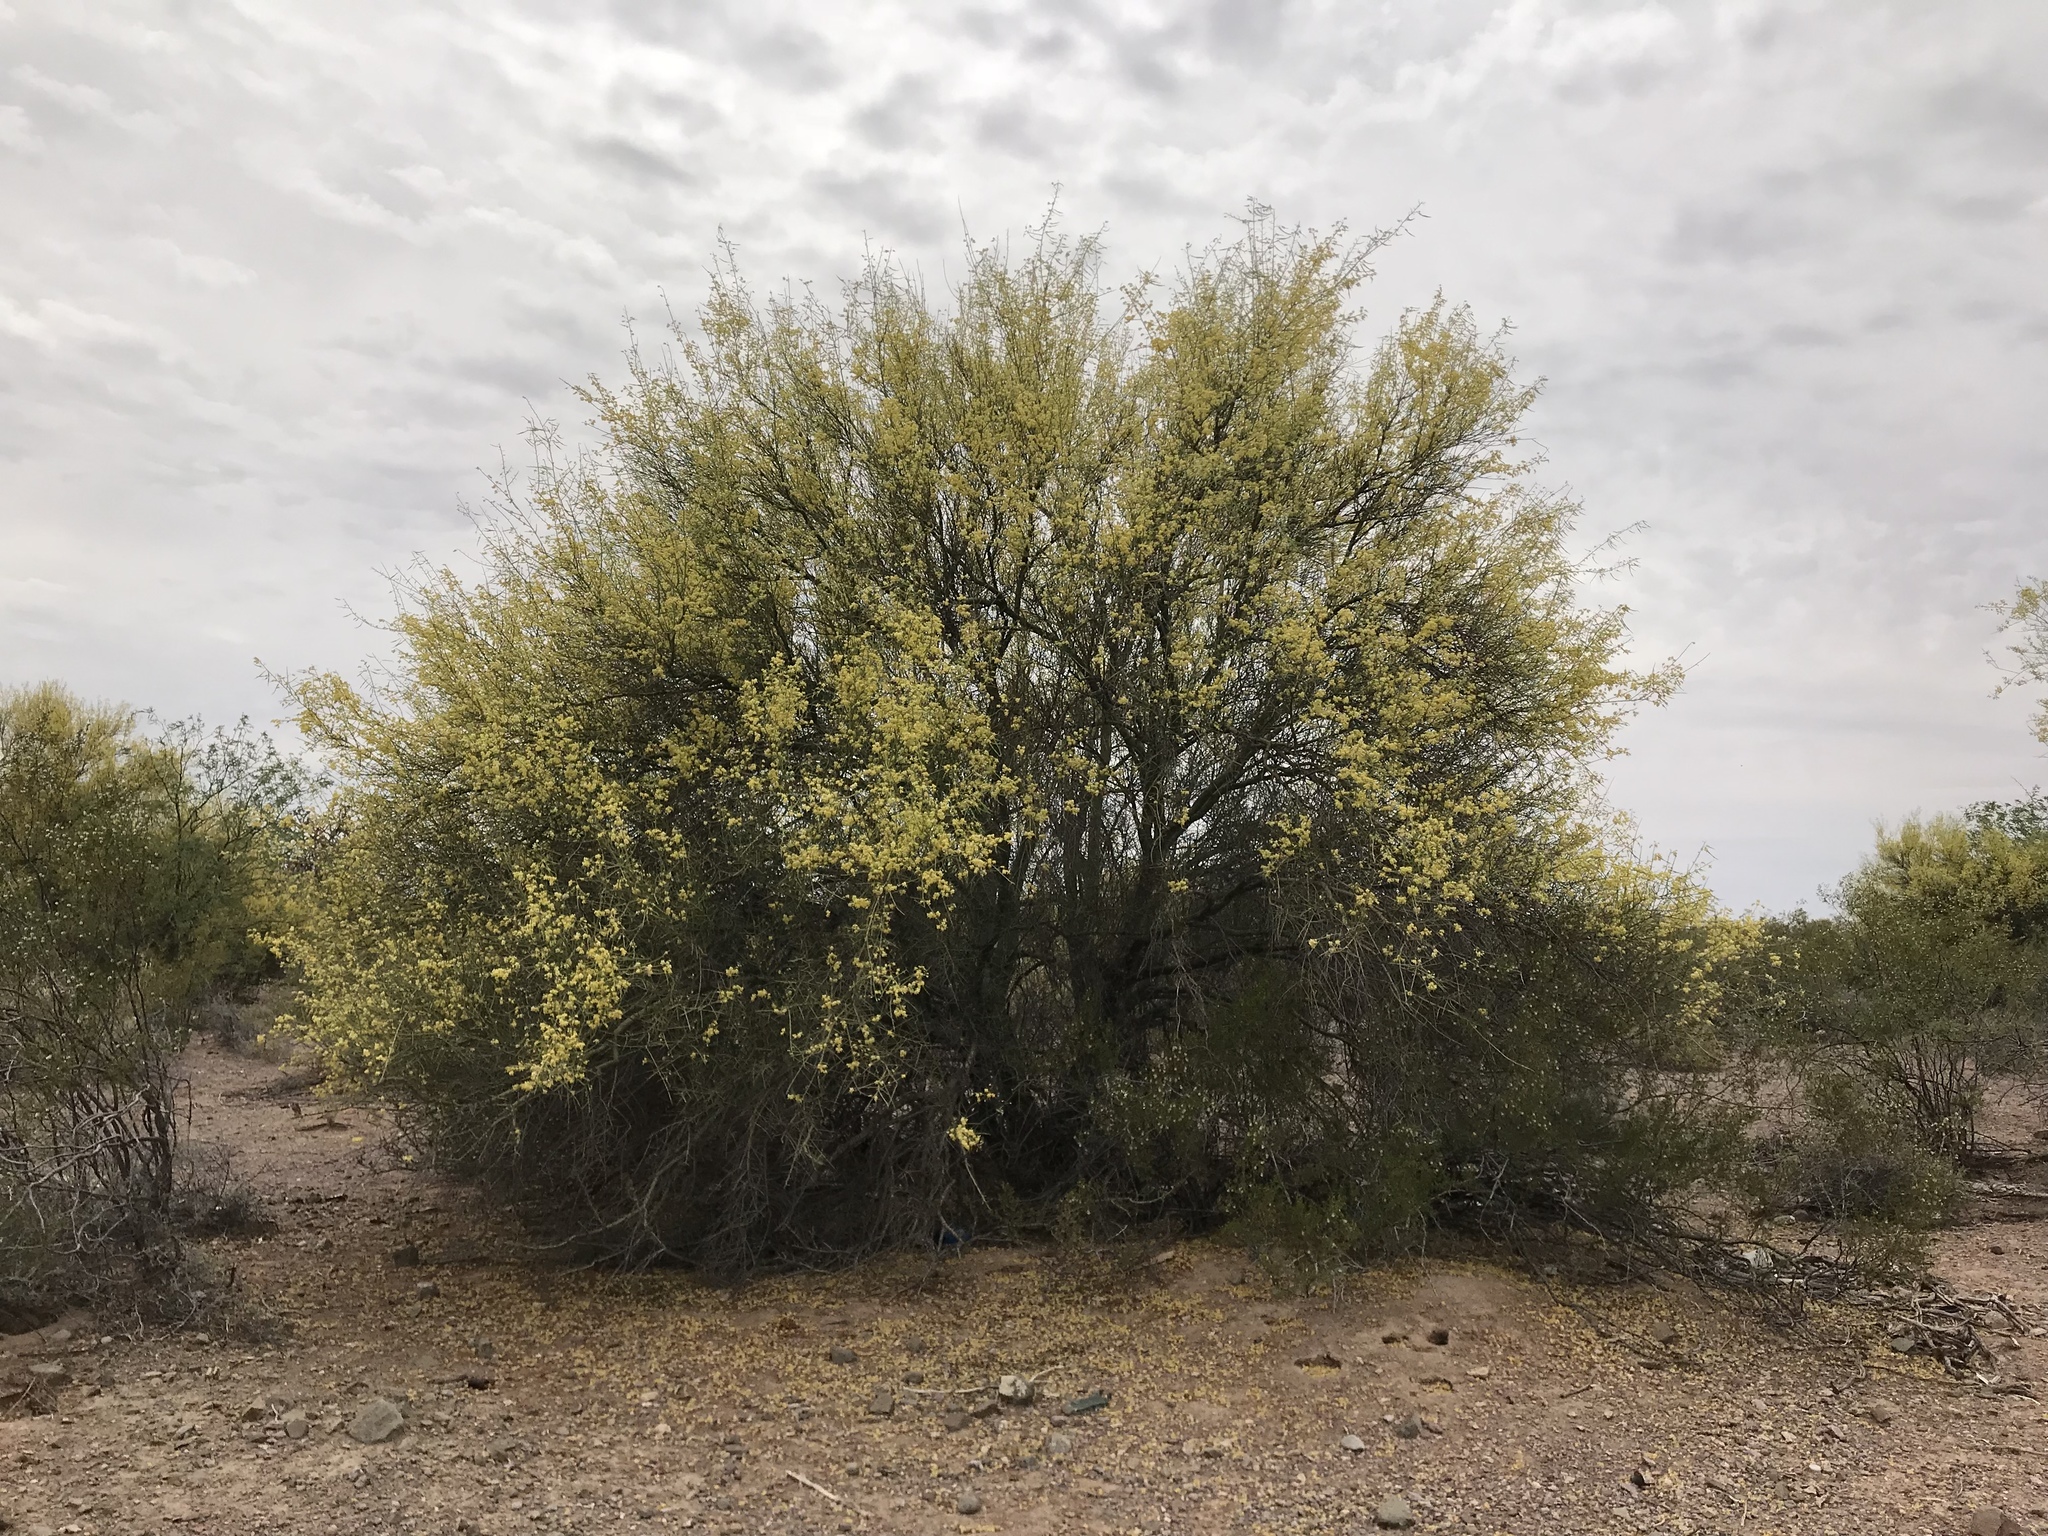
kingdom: Plantae
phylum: Tracheophyta
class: Magnoliopsida
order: Fabales
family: Fabaceae
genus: Parkinsonia
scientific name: Parkinsonia microphylla
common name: Yellow paloverde
